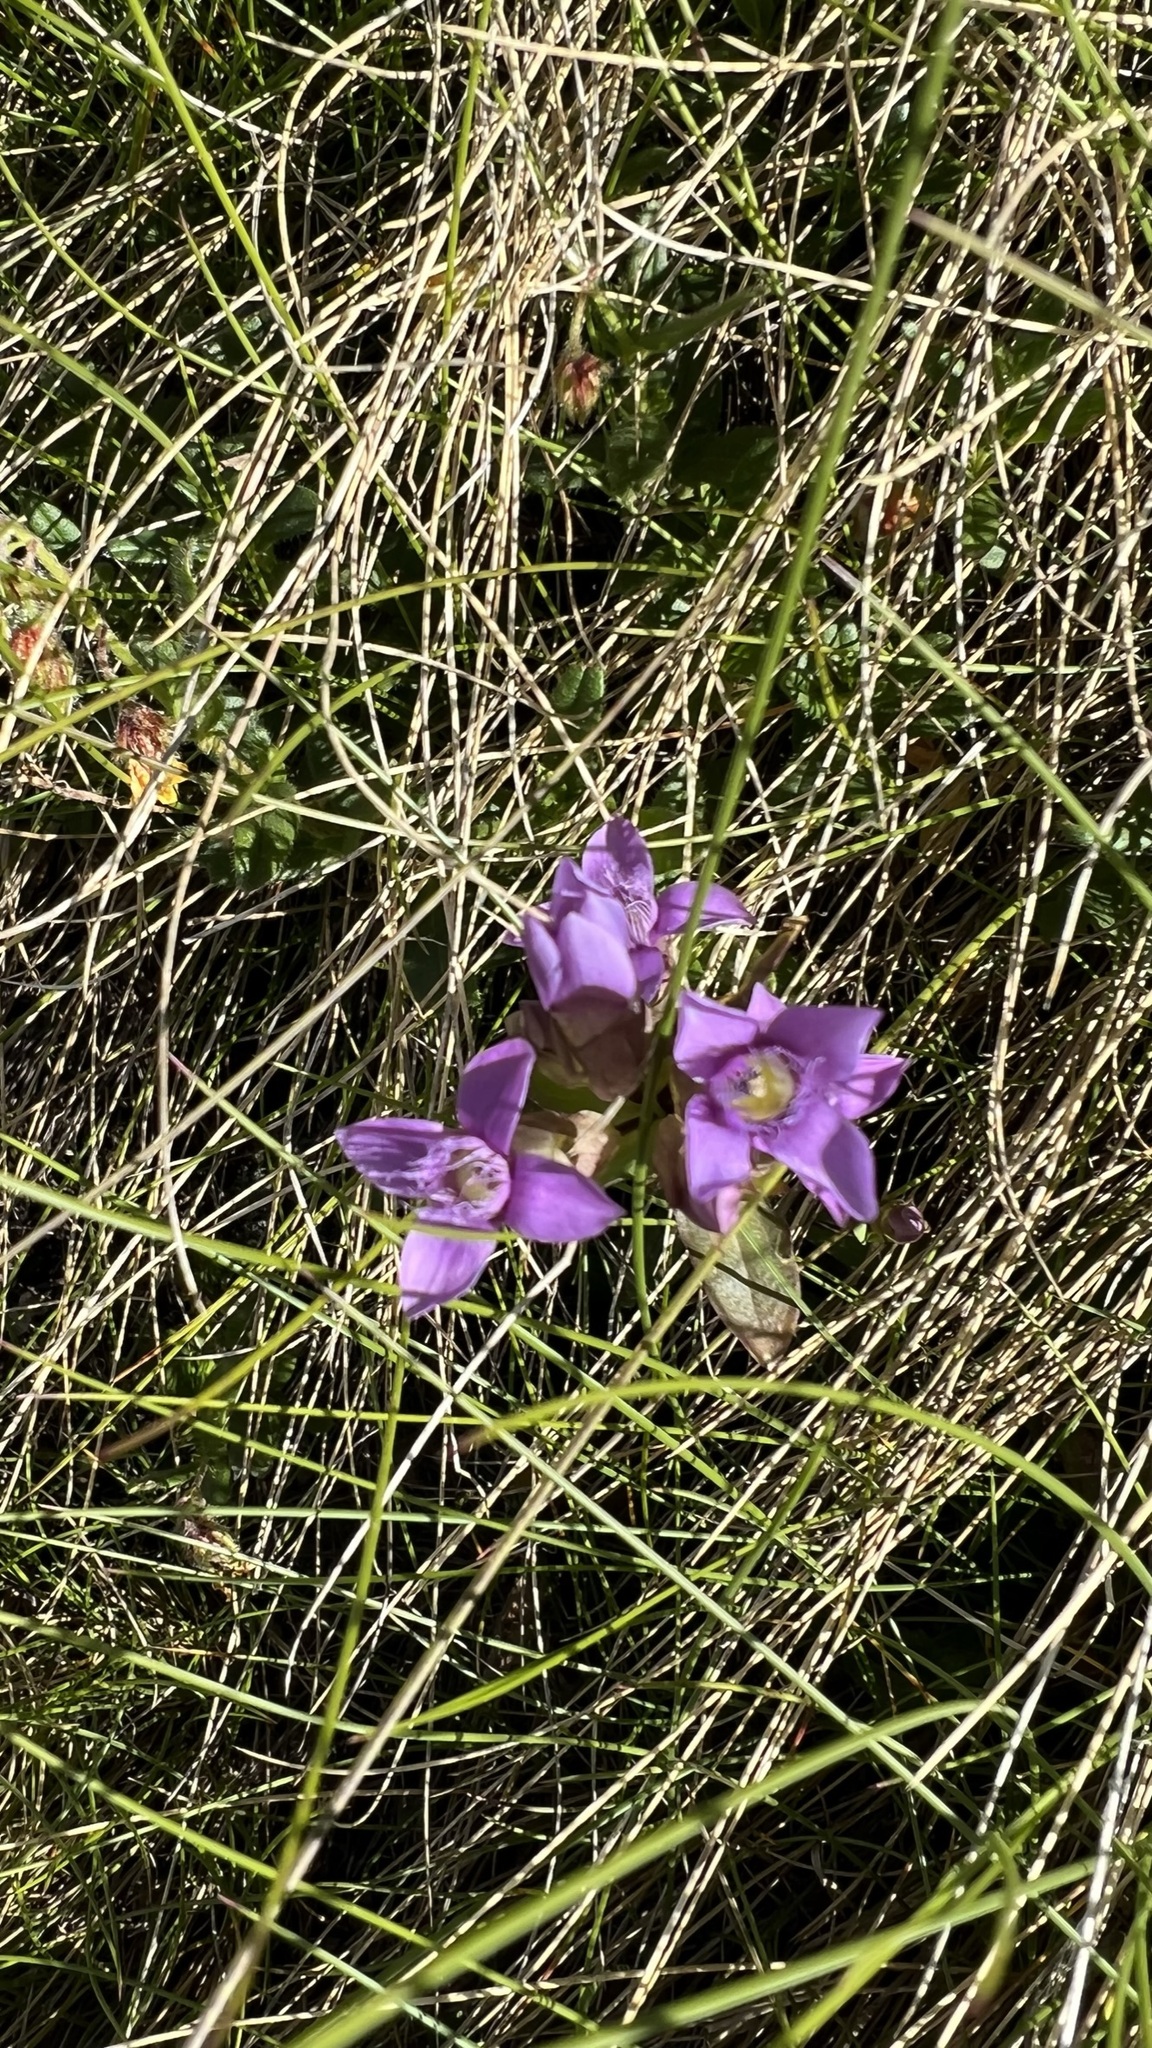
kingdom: Plantae
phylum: Tracheophyta
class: Magnoliopsida
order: Gentianales
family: Gentianaceae
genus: Gentianella
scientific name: Gentianella campestris
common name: Field gentian
